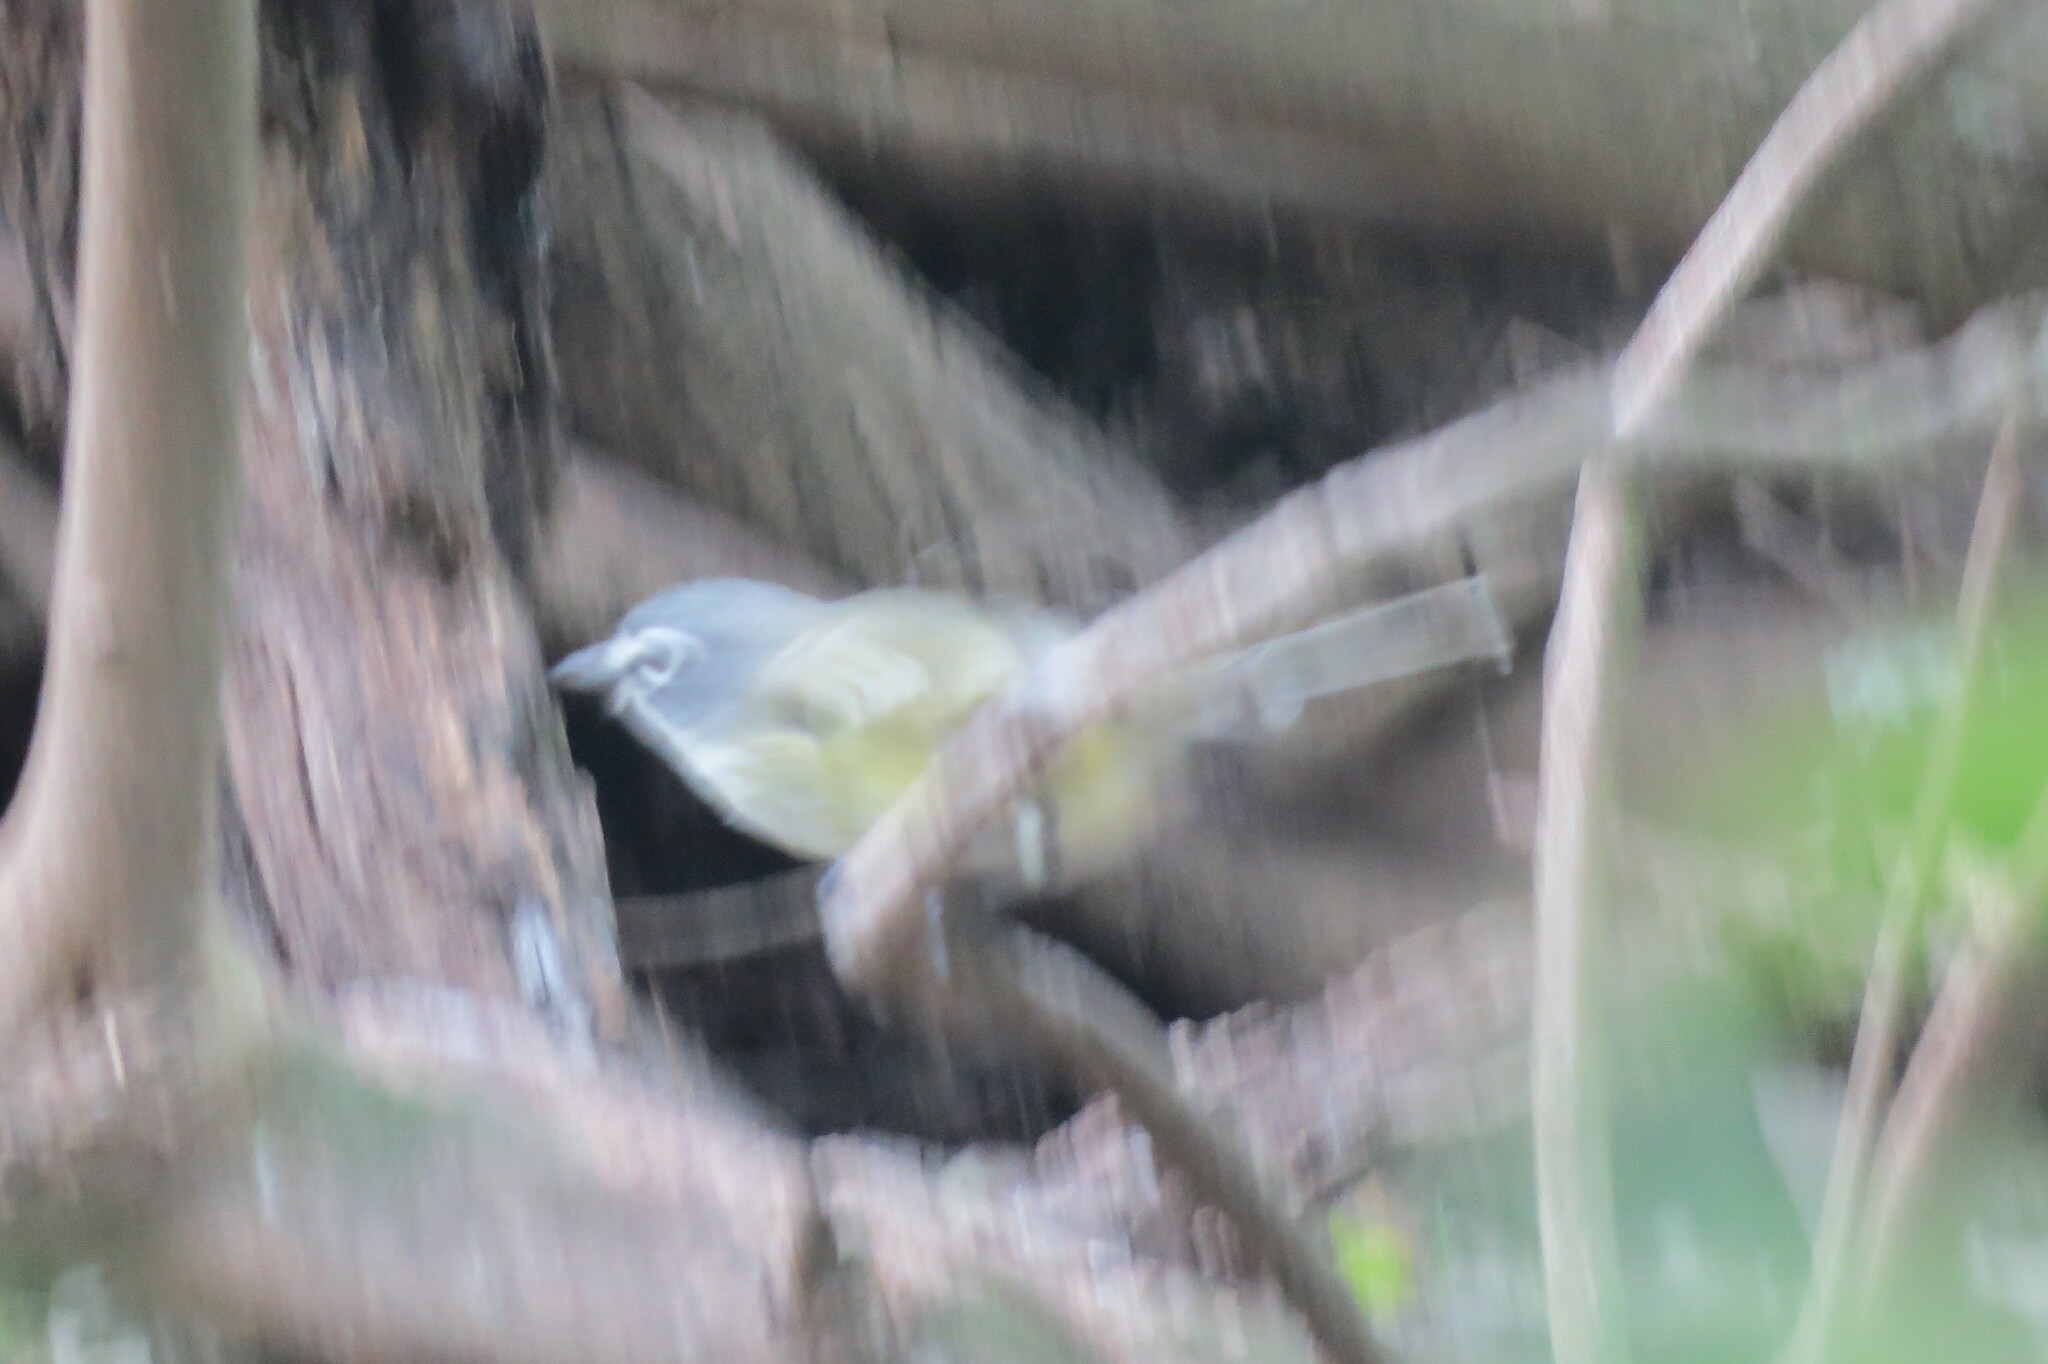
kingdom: Animalia
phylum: Chordata
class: Aves
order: Passeriformes
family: Vireonidae
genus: Vireo
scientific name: Vireo solitarius
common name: Blue-headed vireo
